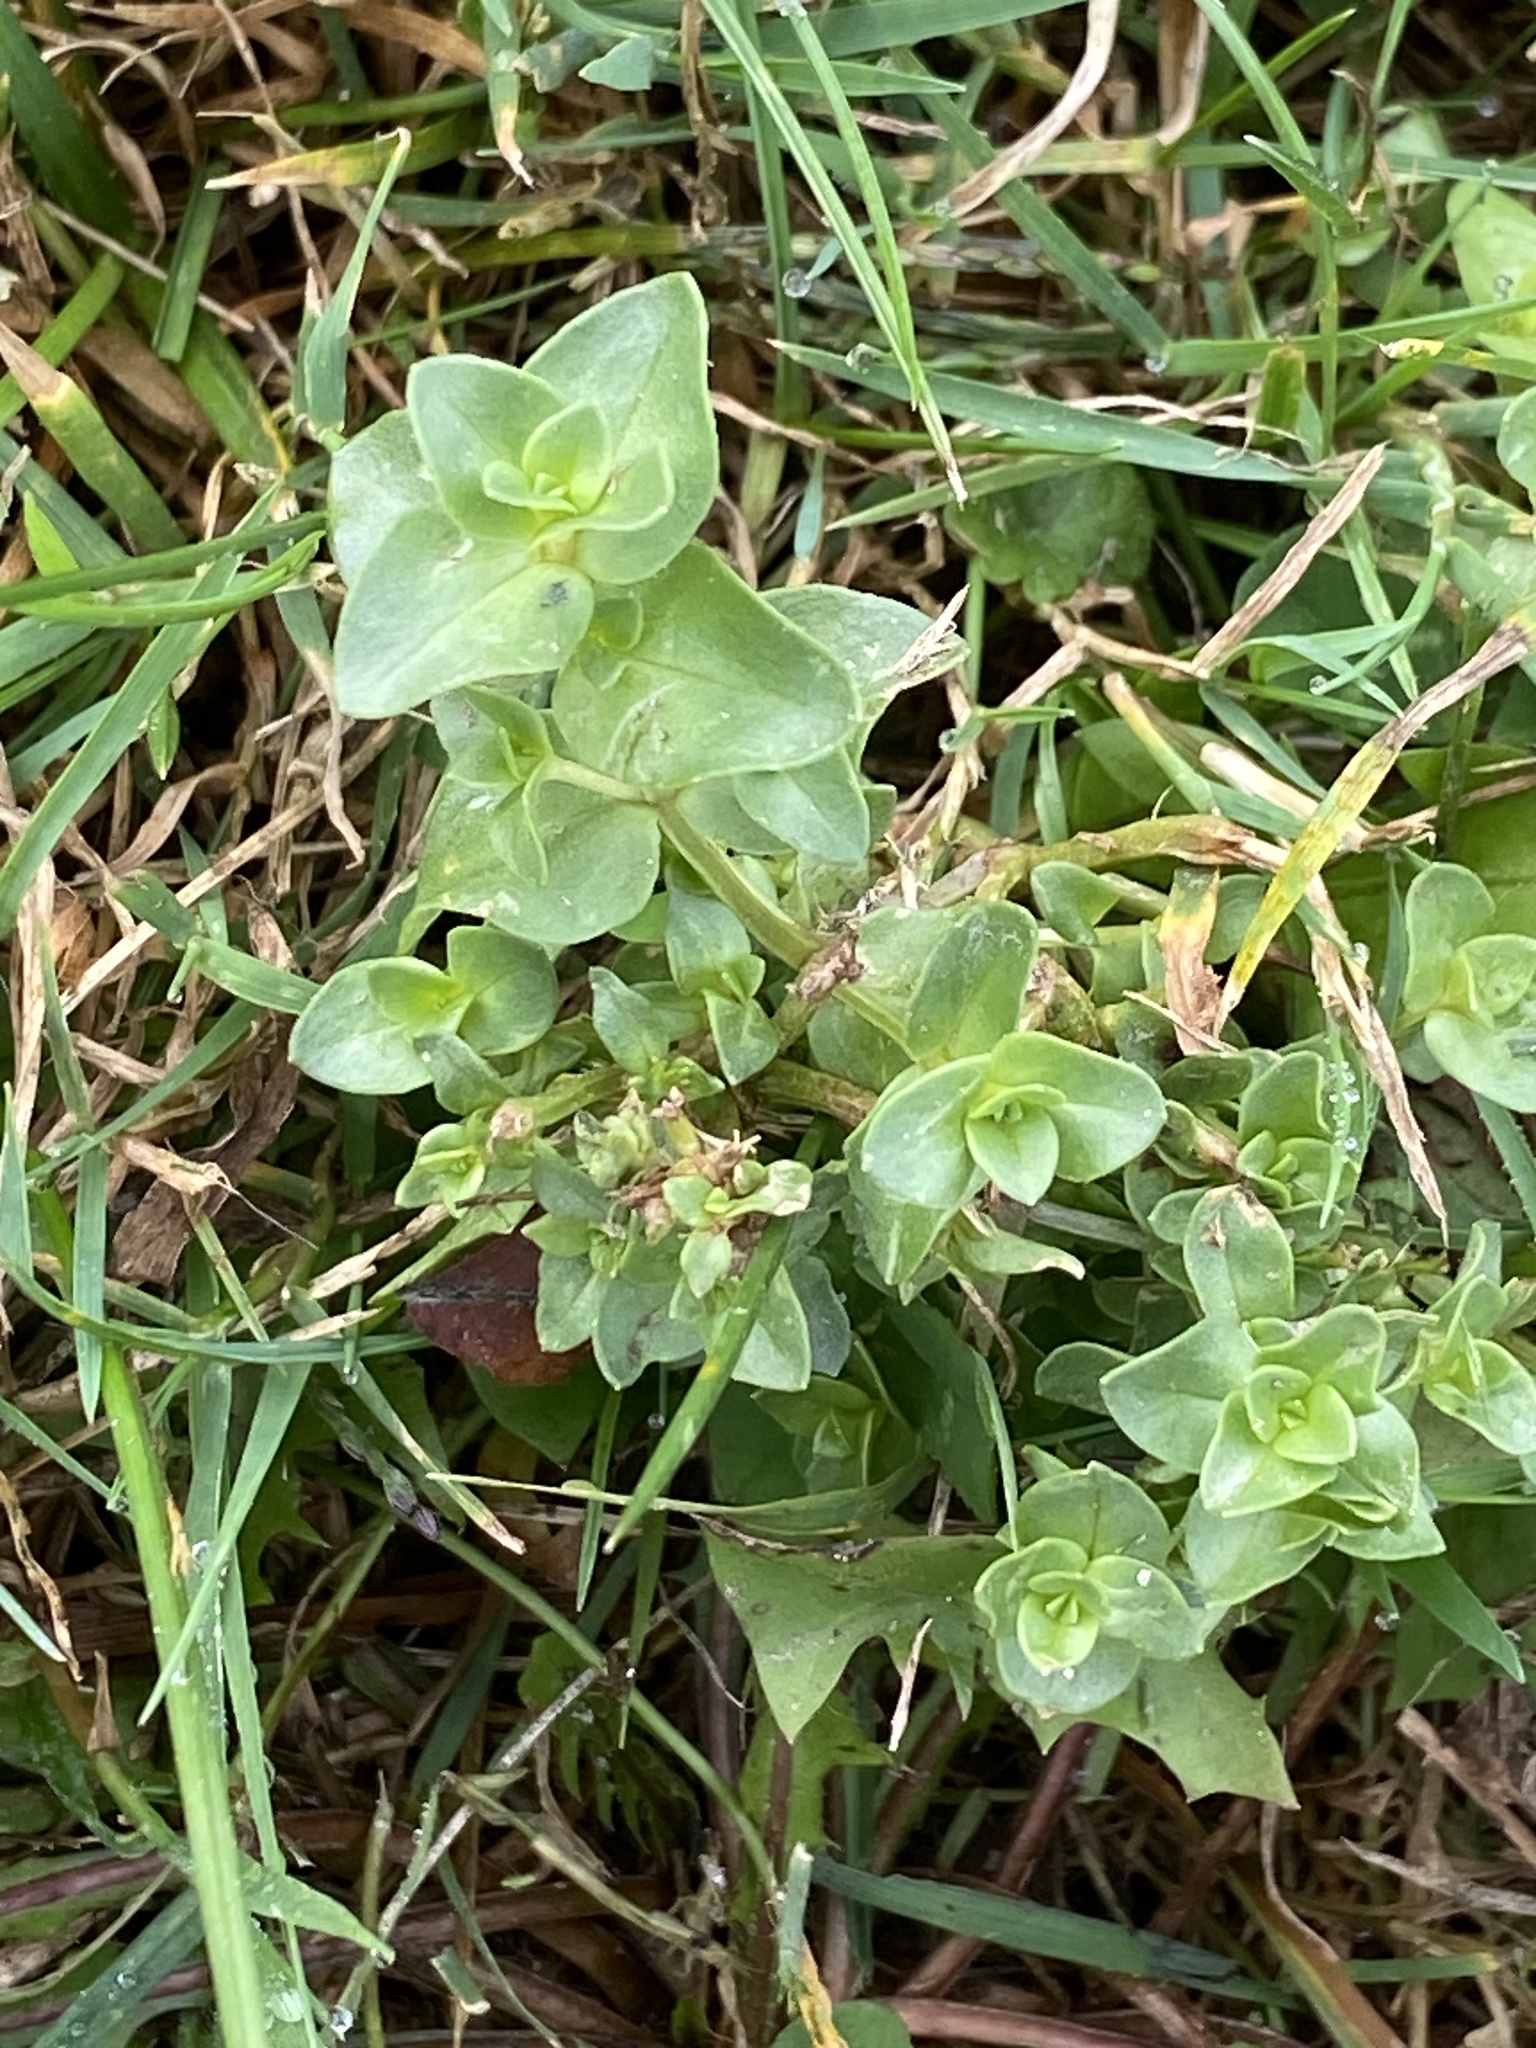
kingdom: Plantae
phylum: Tracheophyta
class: Magnoliopsida
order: Ericales
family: Primulaceae
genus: Lysimachia
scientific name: Lysimachia arvensis
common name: Scarlet pimpernel
